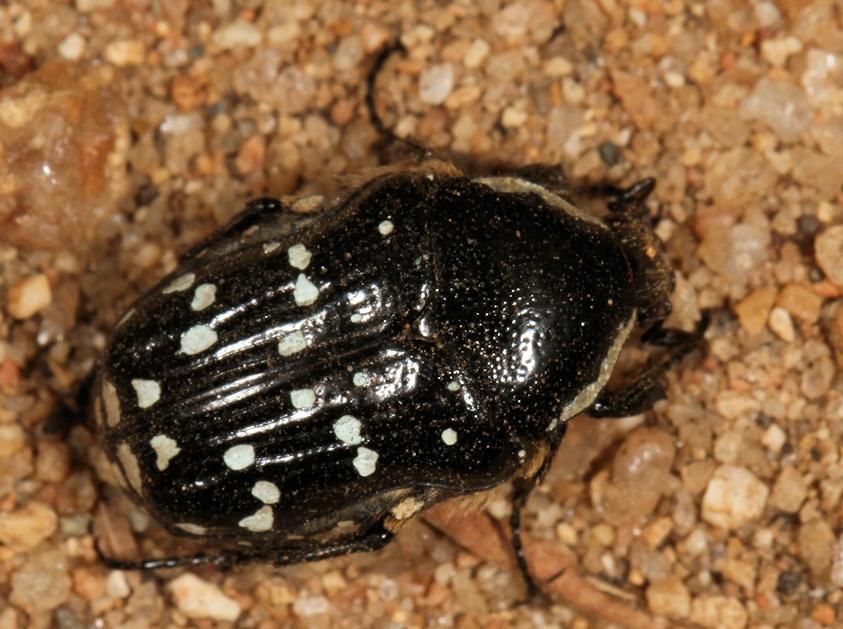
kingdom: Animalia
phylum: Arthropoda
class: Insecta
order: Coleoptera
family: Scarabaeidae
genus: Clinteroides
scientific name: Clinteroides permutans
